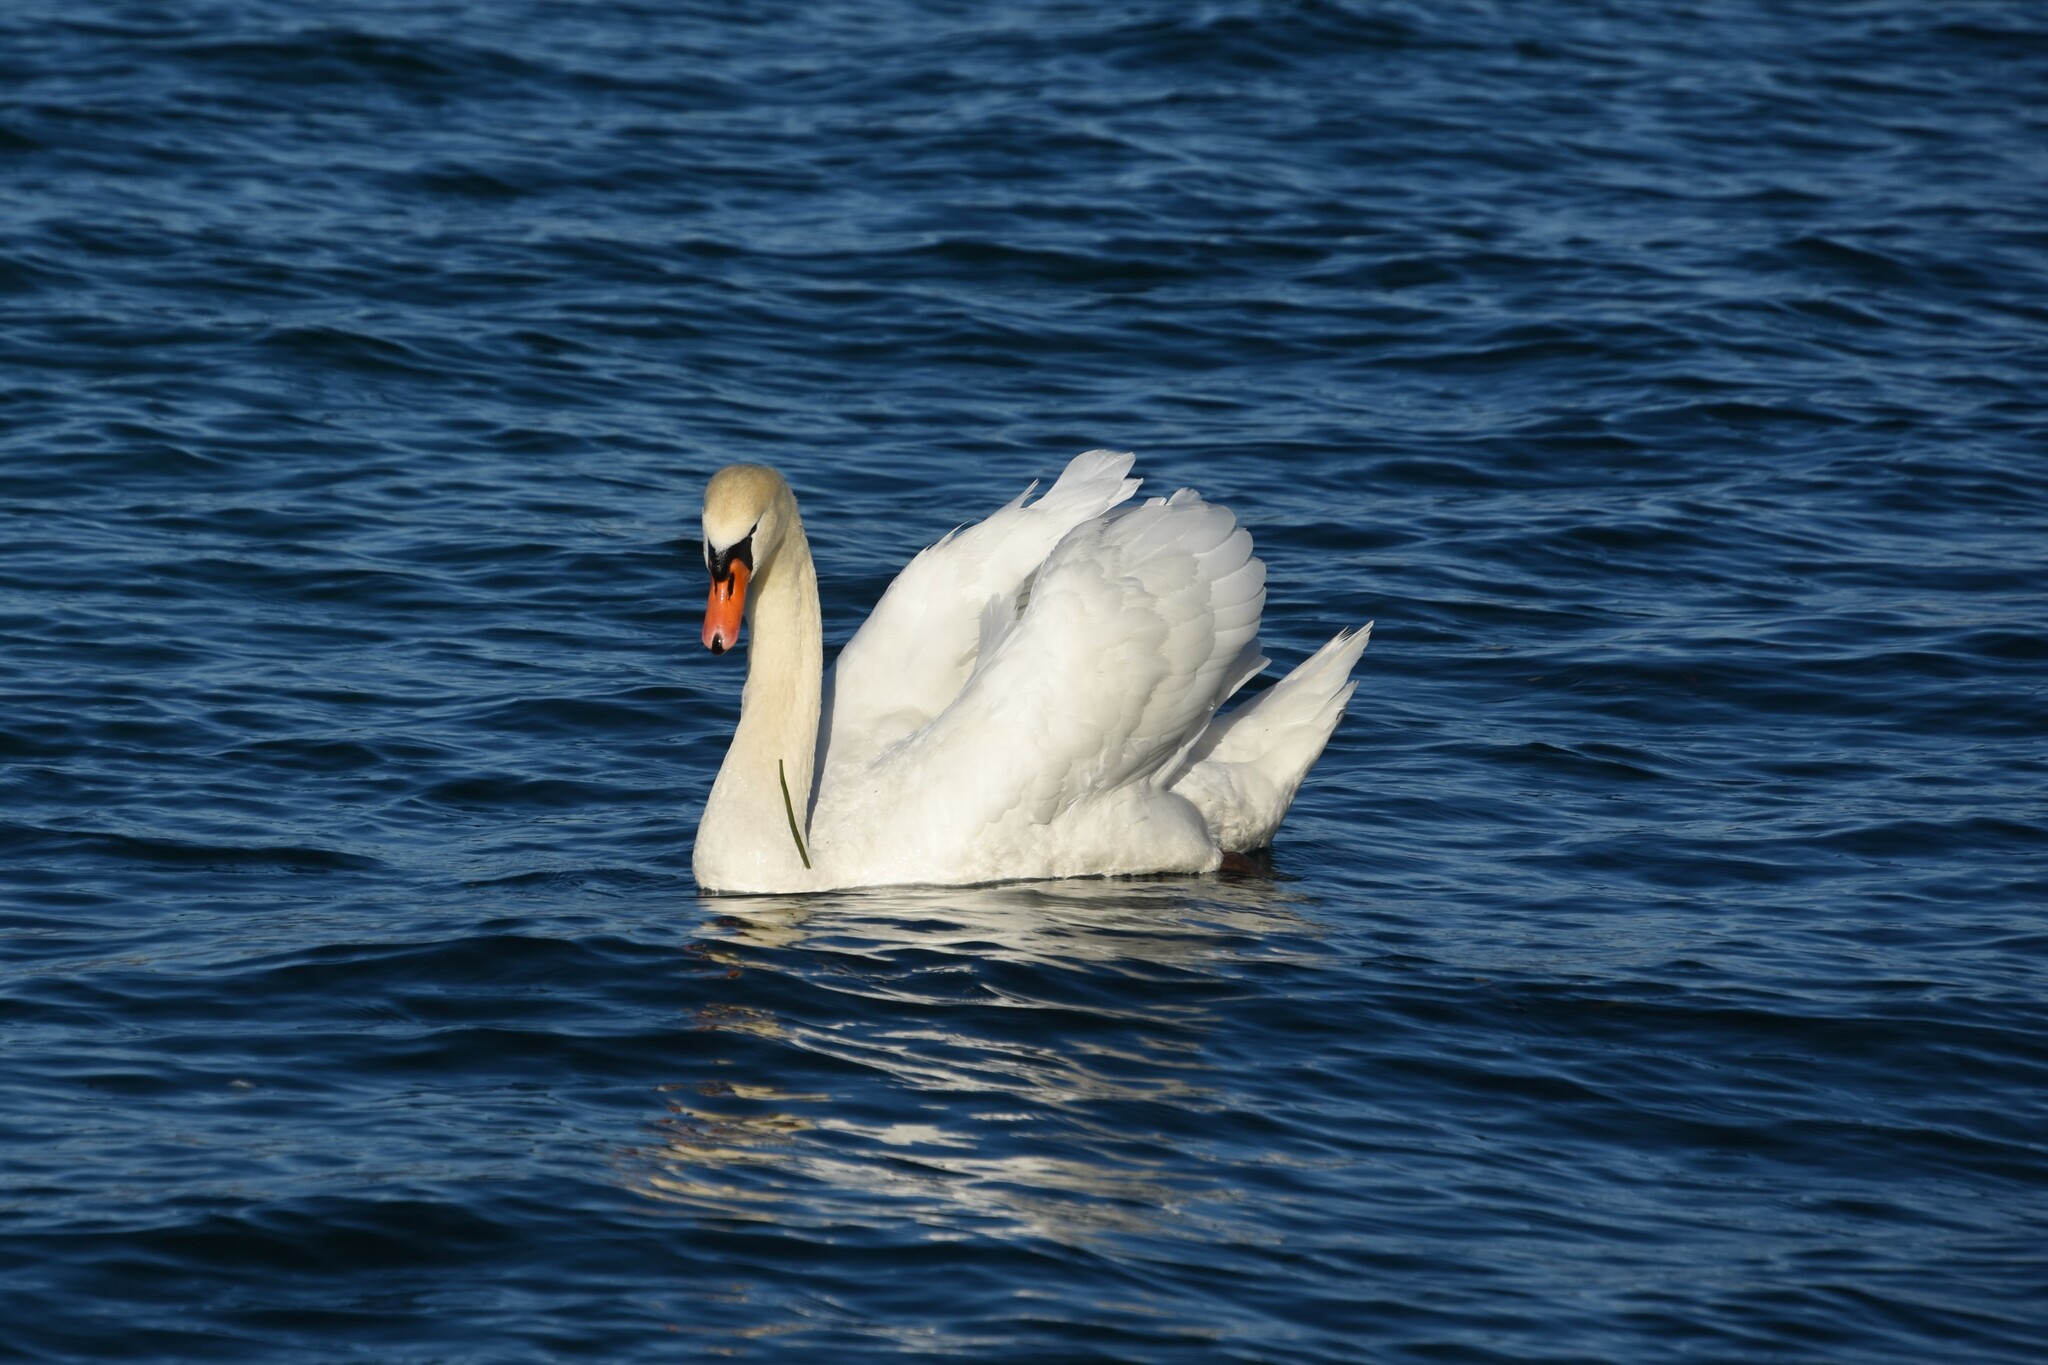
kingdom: Animalia
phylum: Chordata
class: Aves
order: Anseriformes
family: Anatidae
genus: Cygnus
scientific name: Cygnus olor
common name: Mute swan
